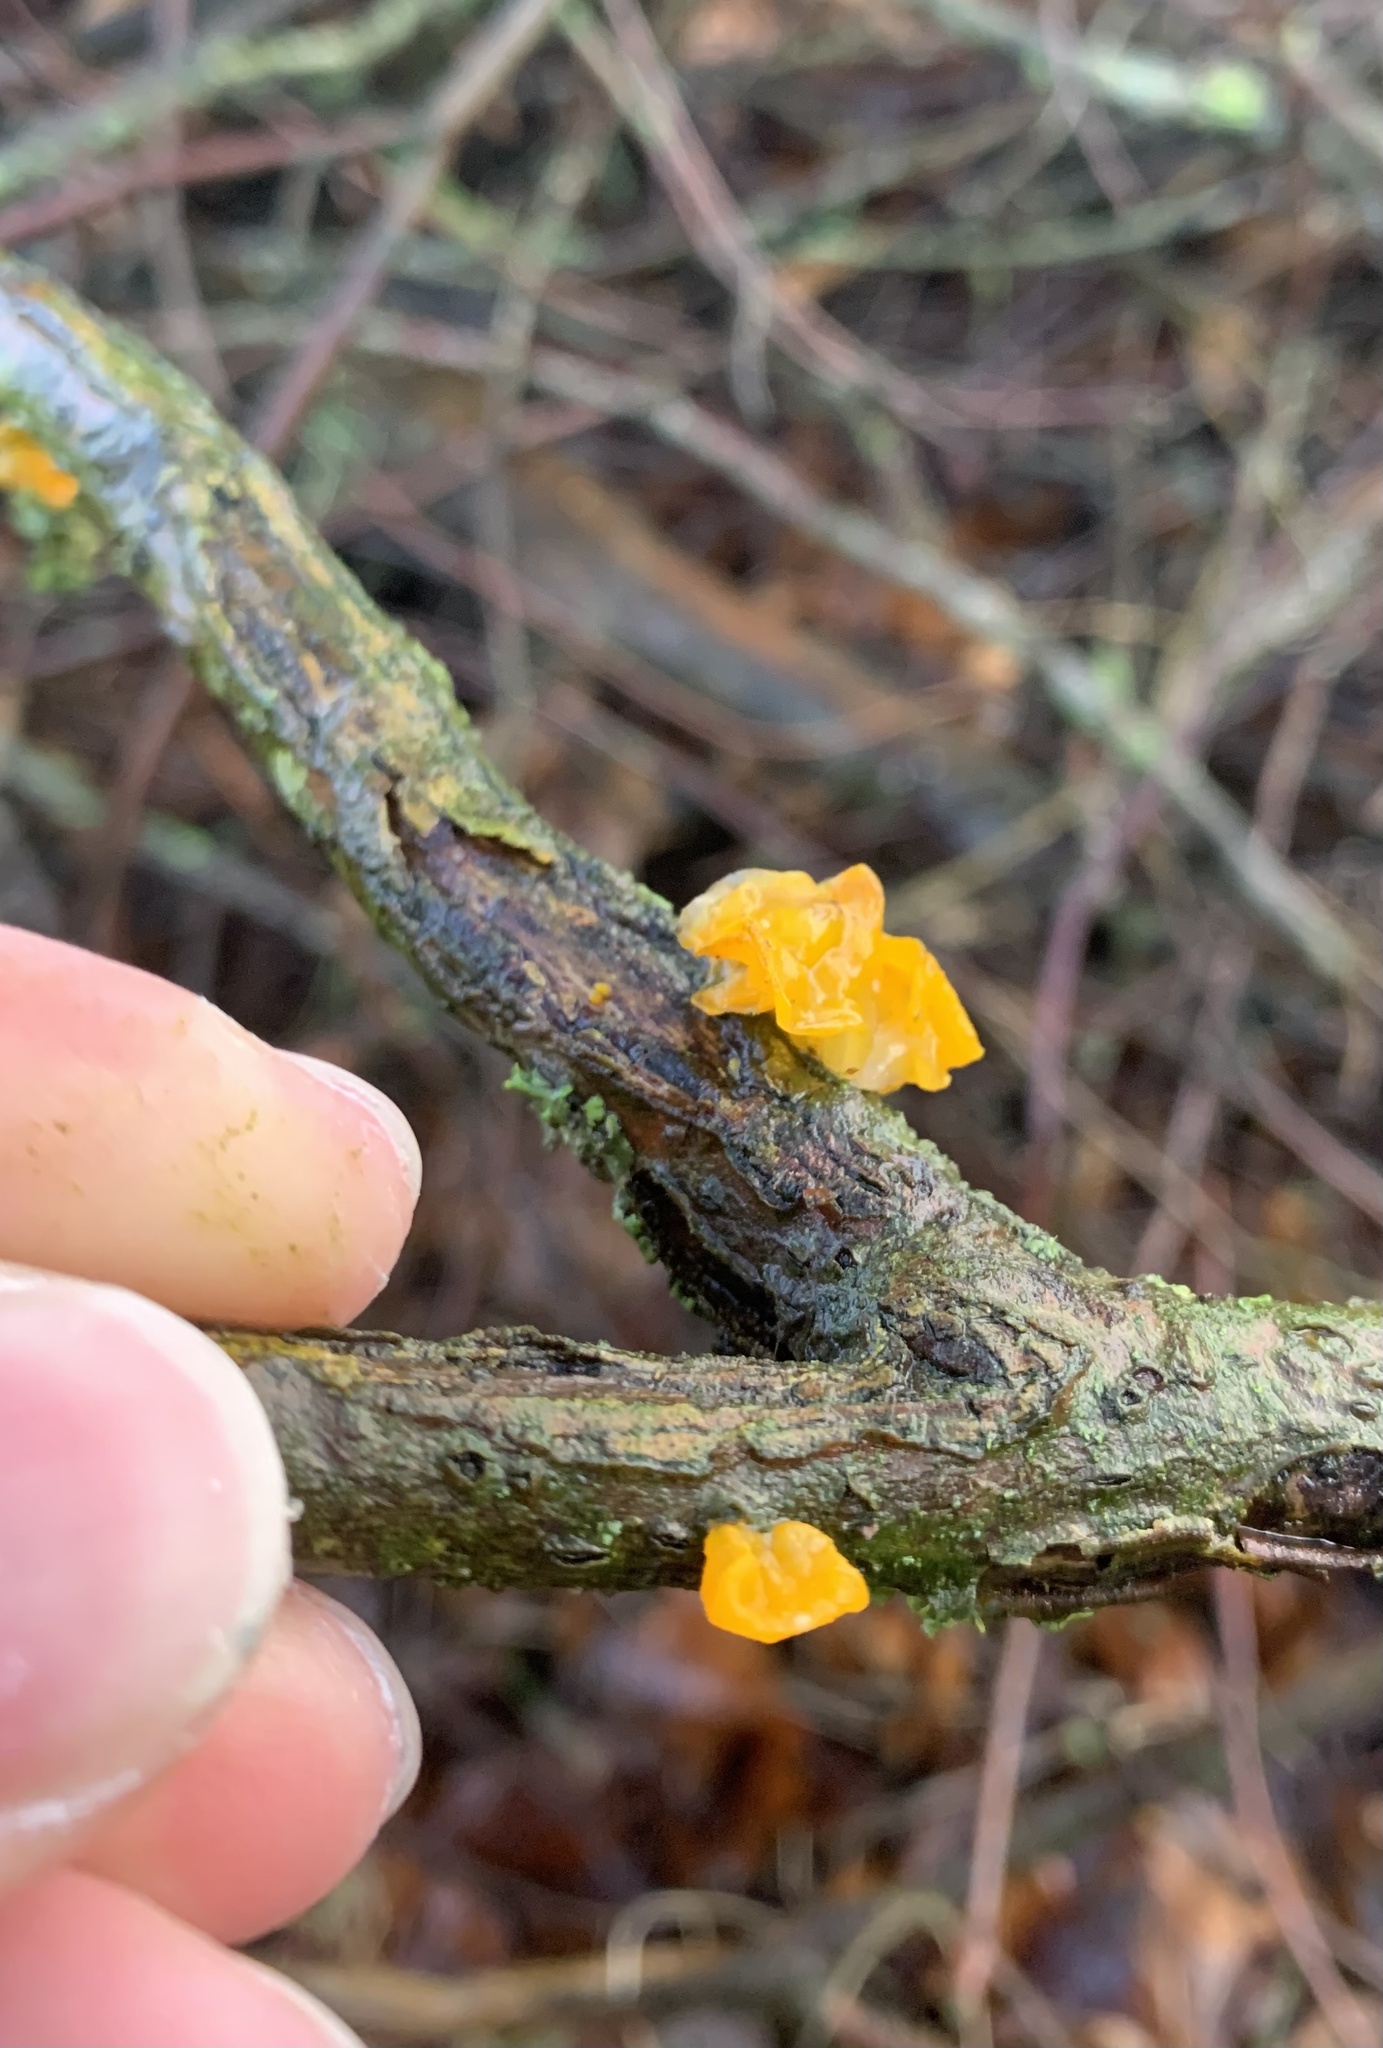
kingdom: Fungi
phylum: Basidiomycota
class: Tremellomycetes
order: Tremellales
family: Tremellaceae
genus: Tremella
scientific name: Tremella mesenterica
